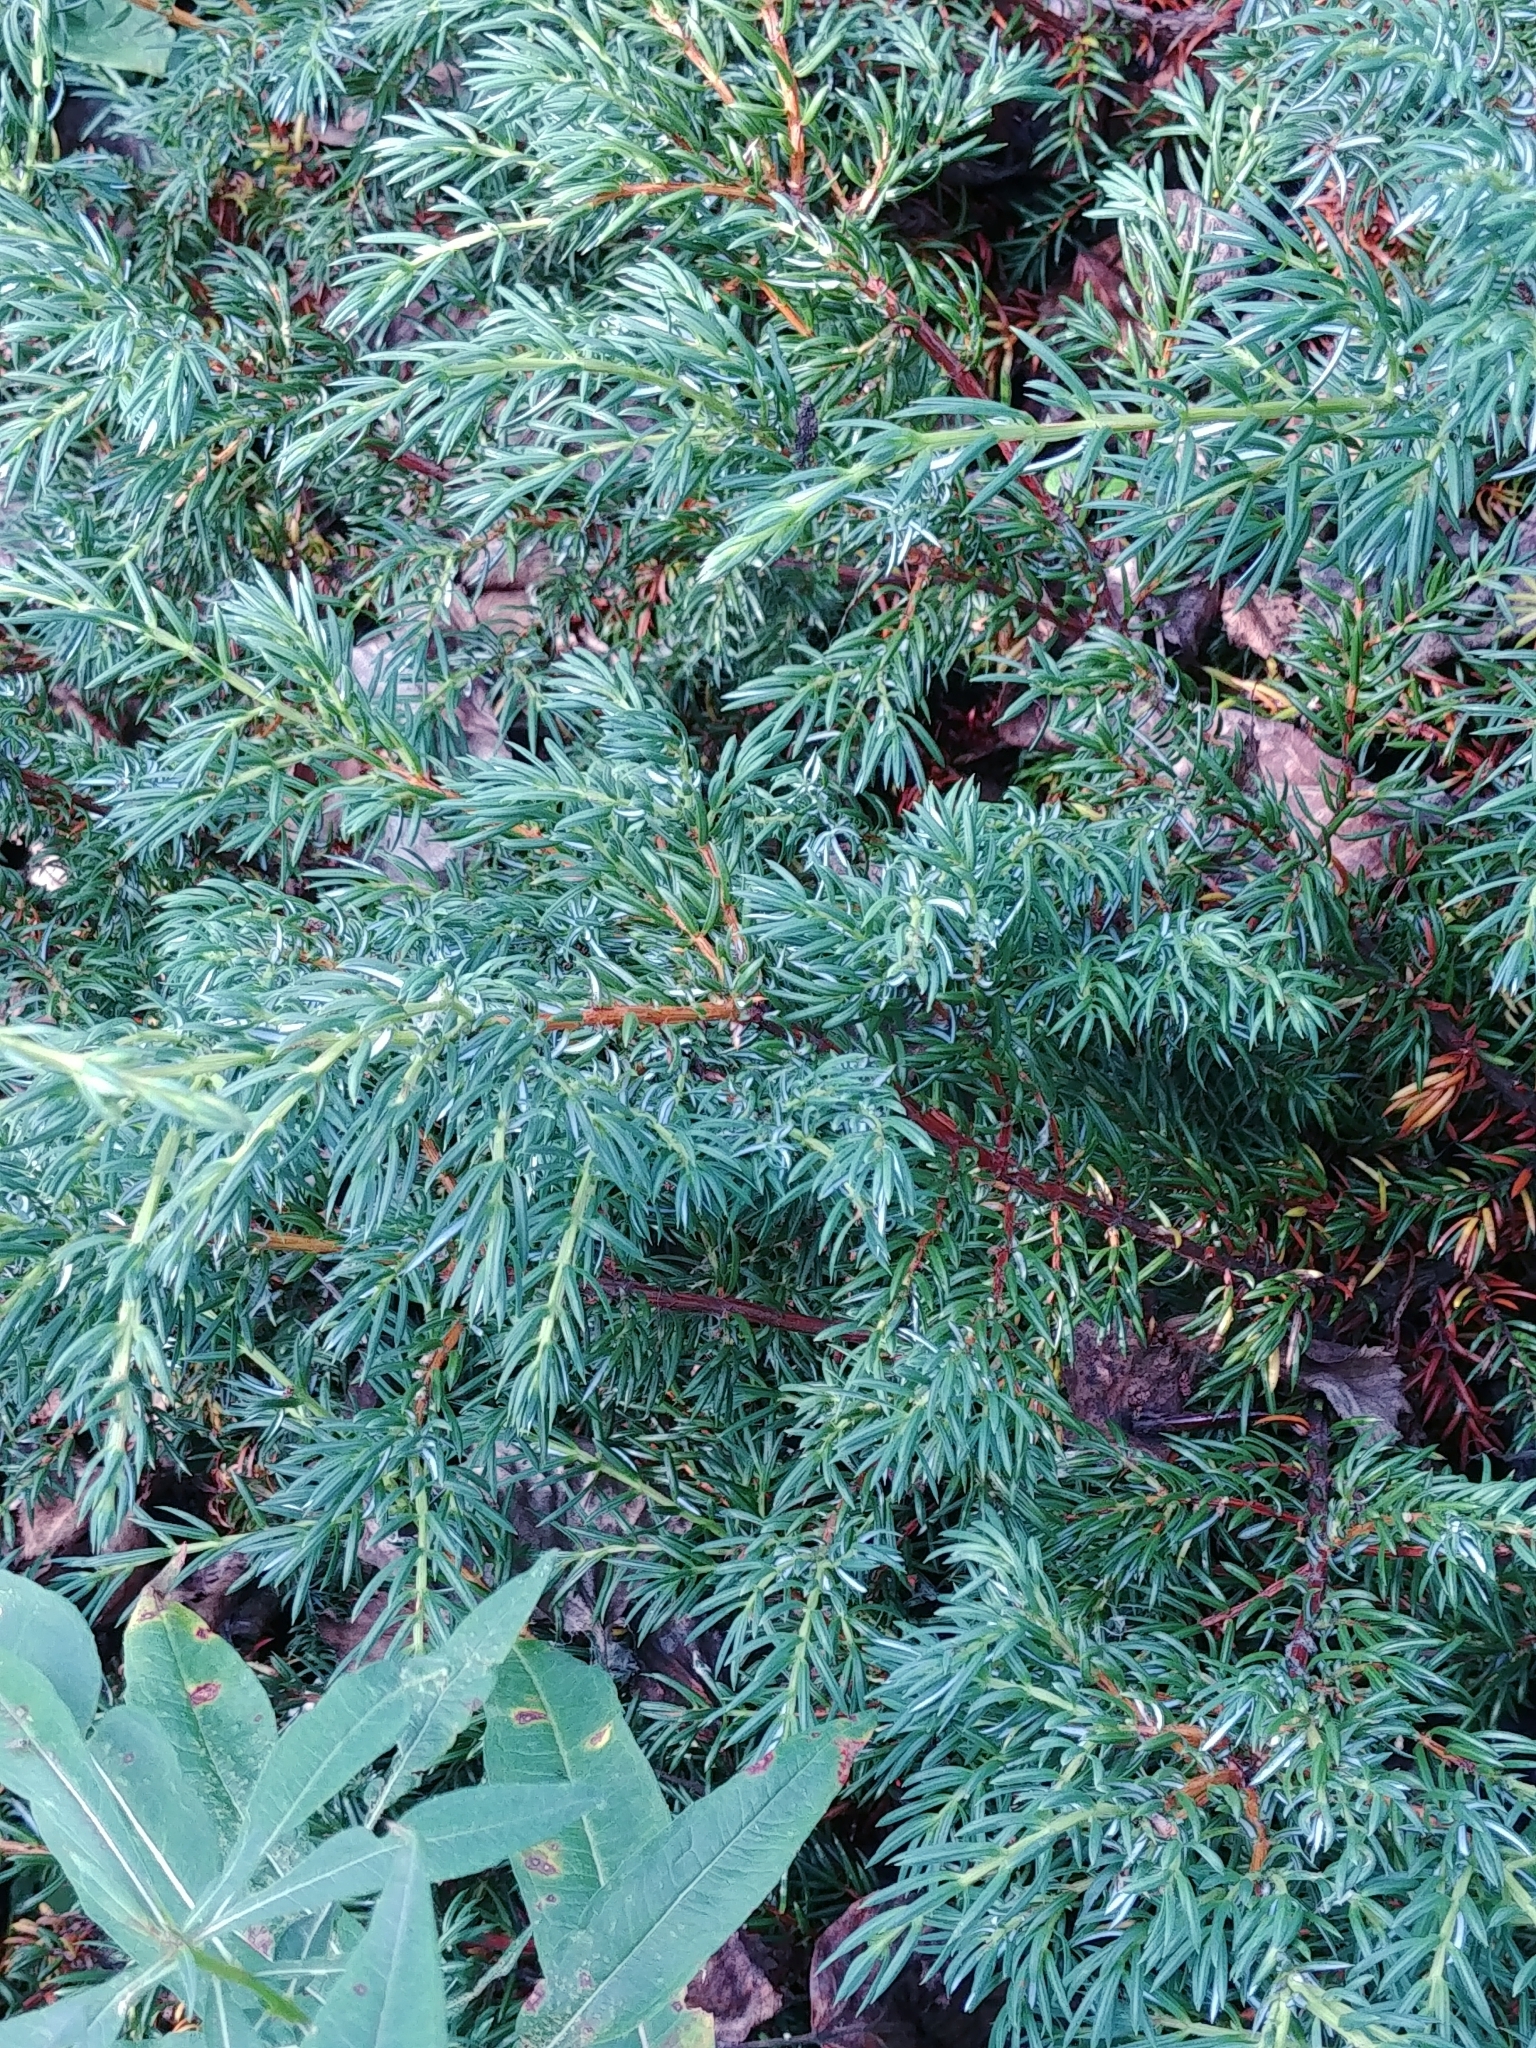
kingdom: Plantae
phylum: Tracheophyta
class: Pinopsida
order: Pinales
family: Cupressaceae
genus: Juniperus
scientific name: Juniperus communis
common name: Common juniper
